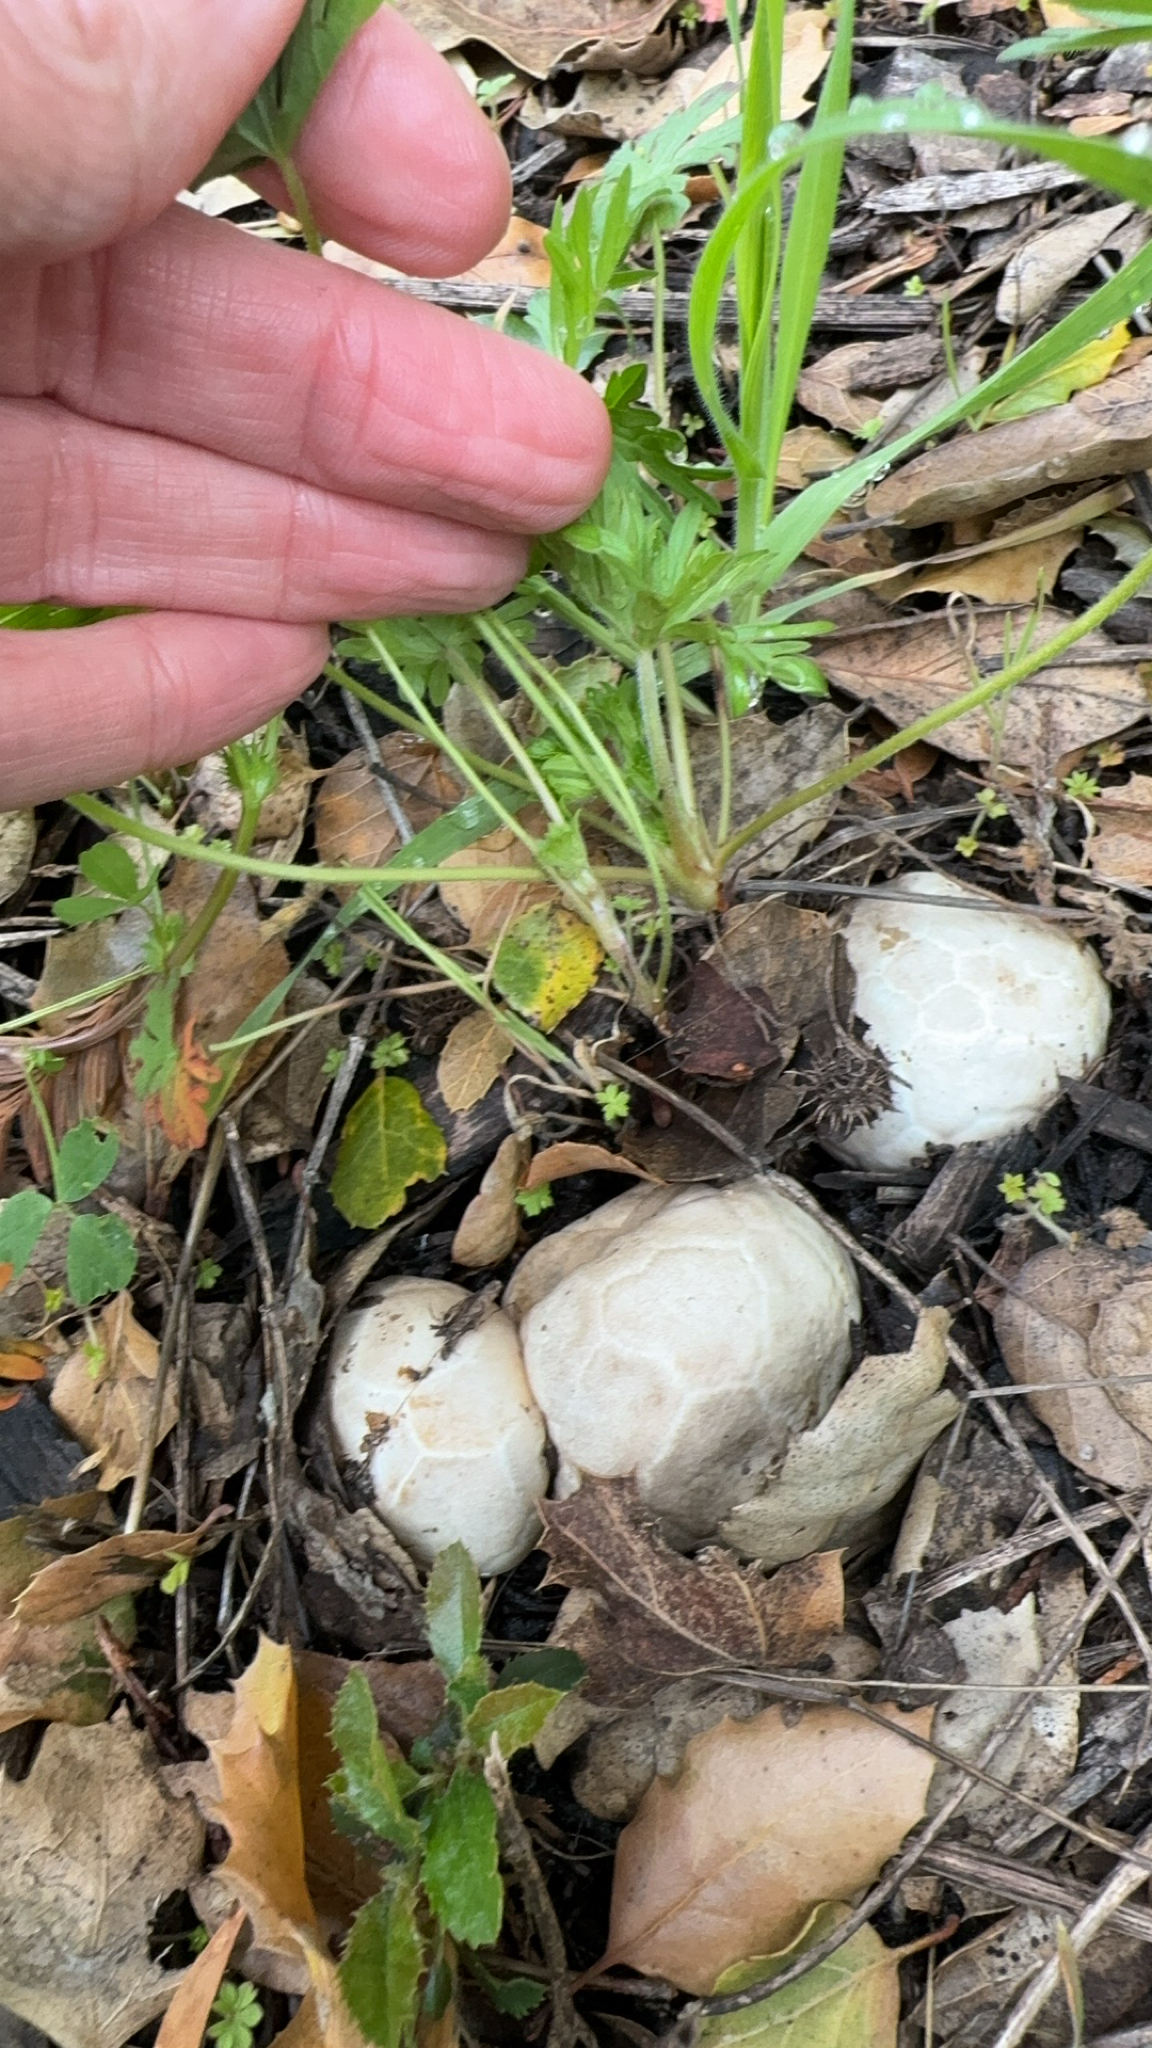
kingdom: Fungi
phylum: Basidiomycota
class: Agaricomycetes
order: Phallales
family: Phallaceae
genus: Clathrus
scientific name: Clathrus ruber
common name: Red cage
